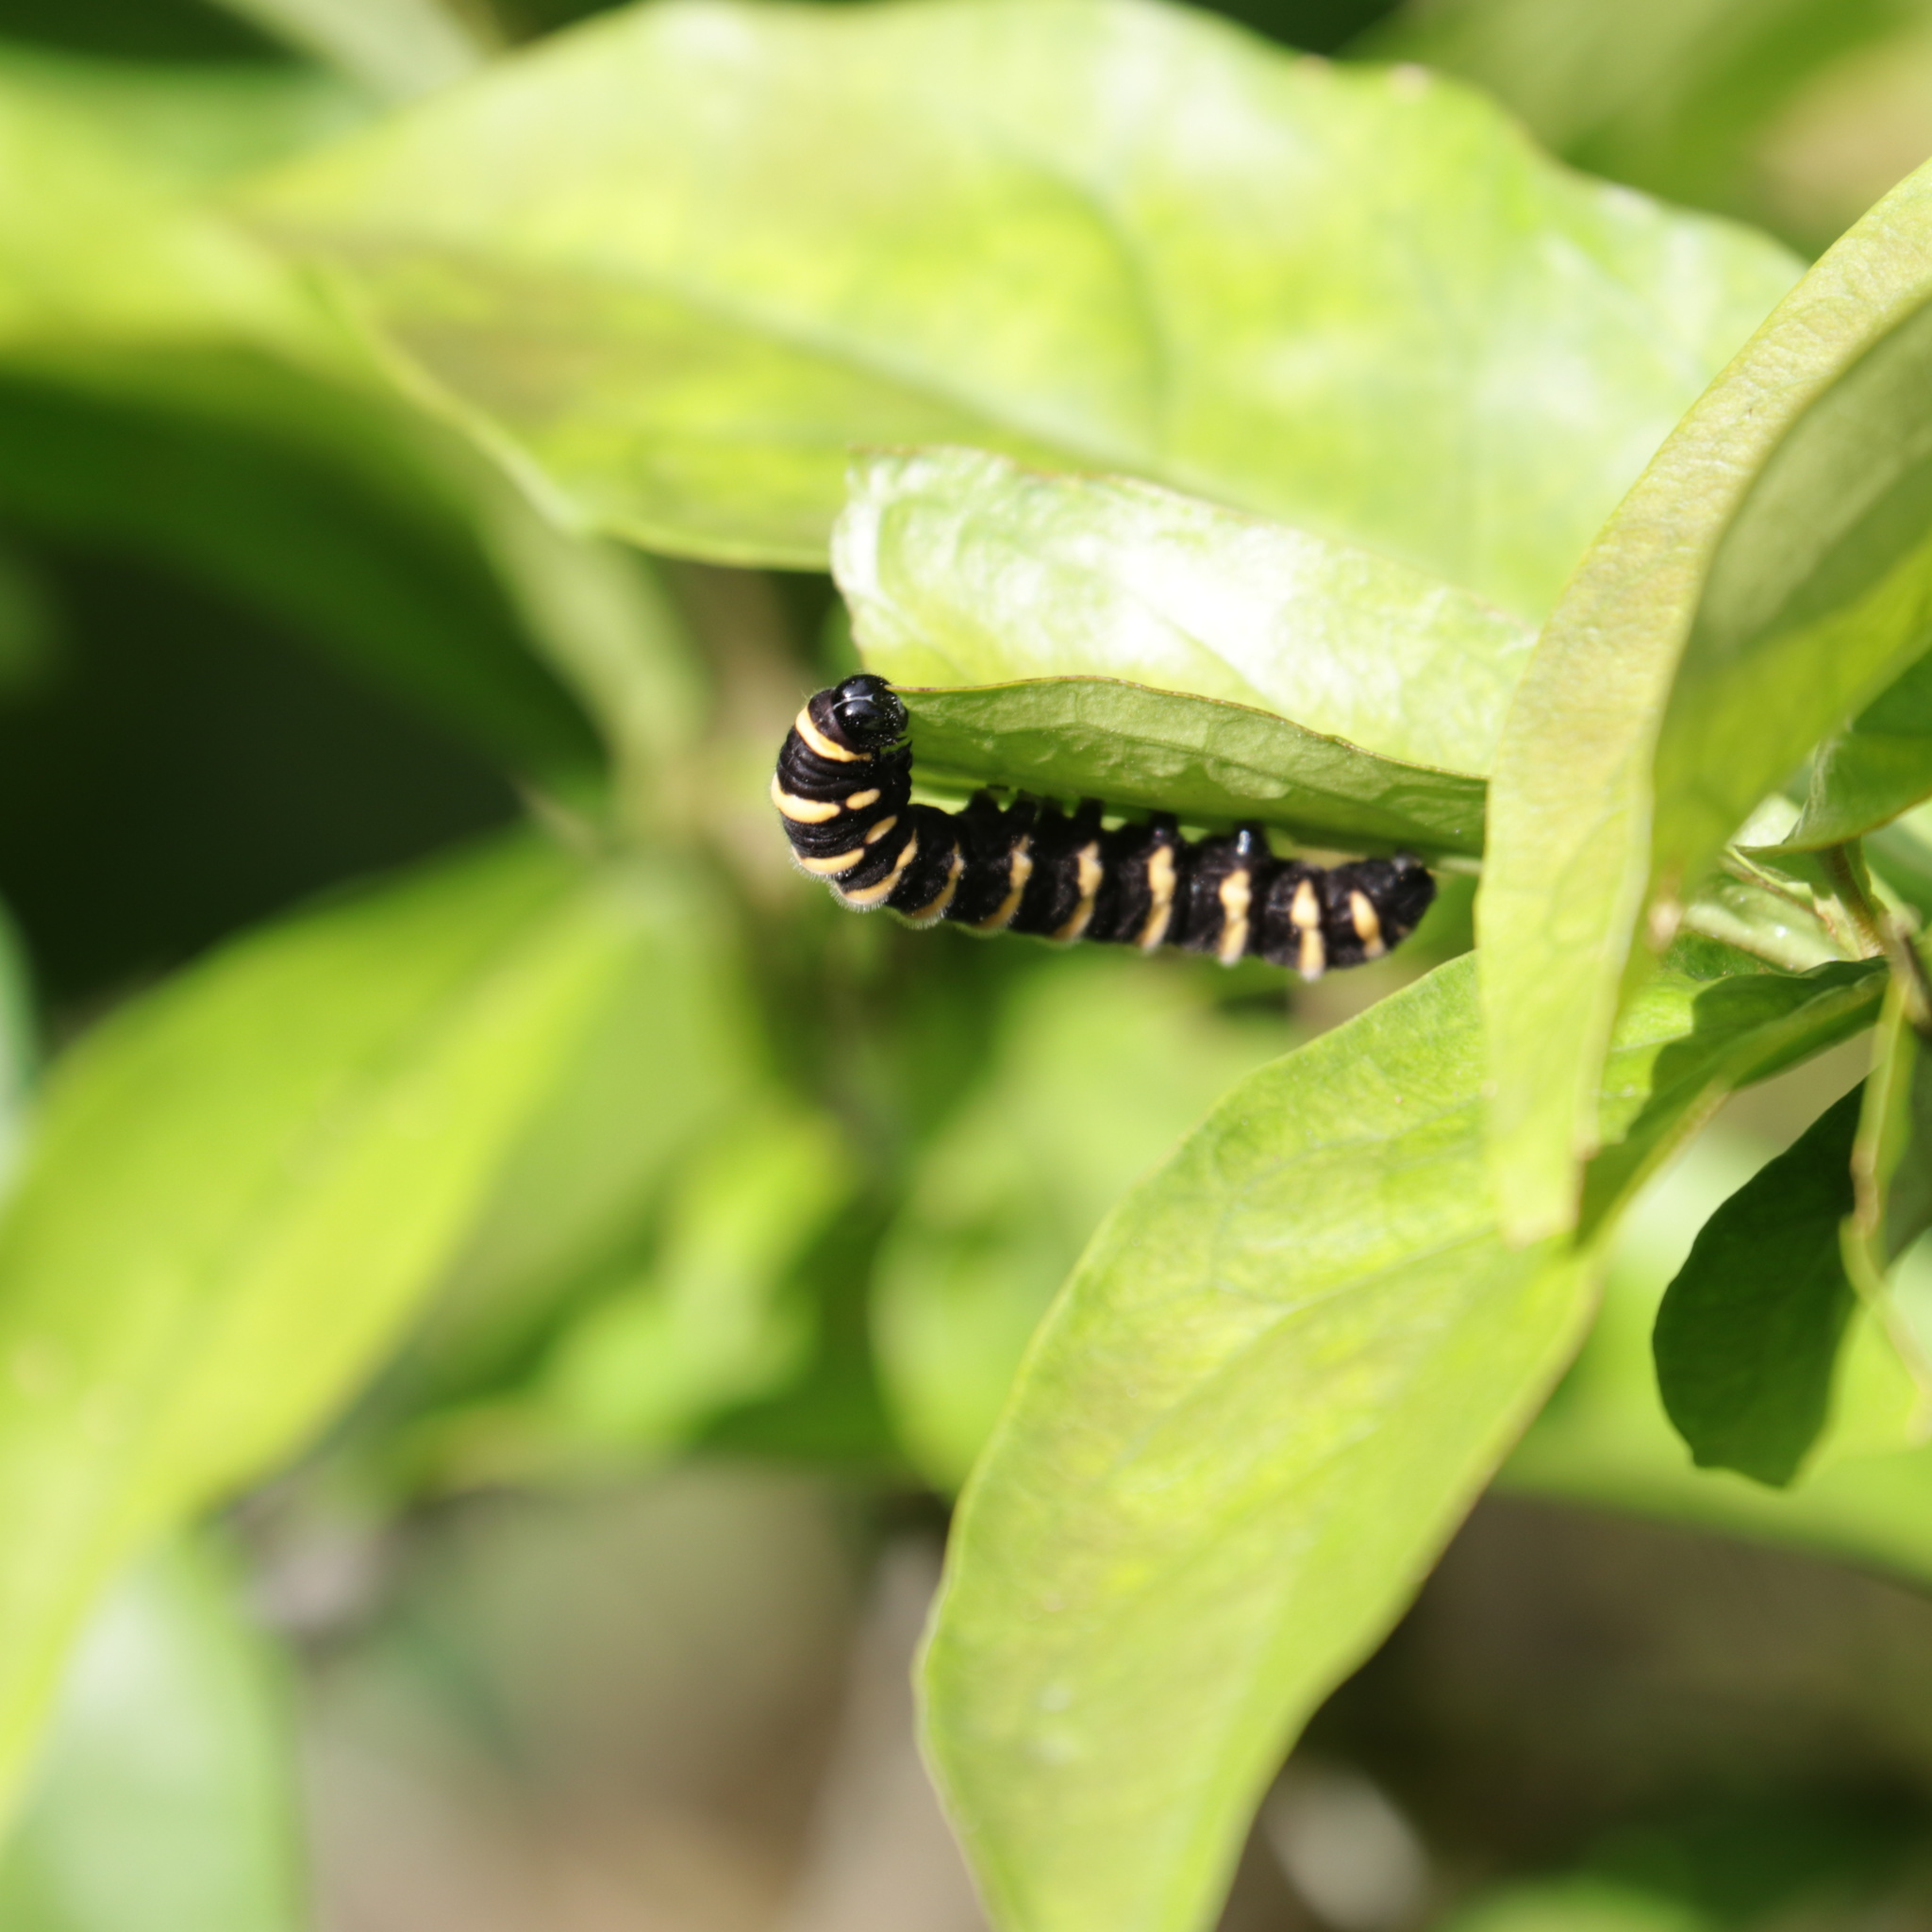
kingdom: Animalia
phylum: Arthropoda
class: Insecta
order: Lepidoptera
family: Nymphalidae
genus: Methona
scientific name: Methona themisto
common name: Themisto amberwing
